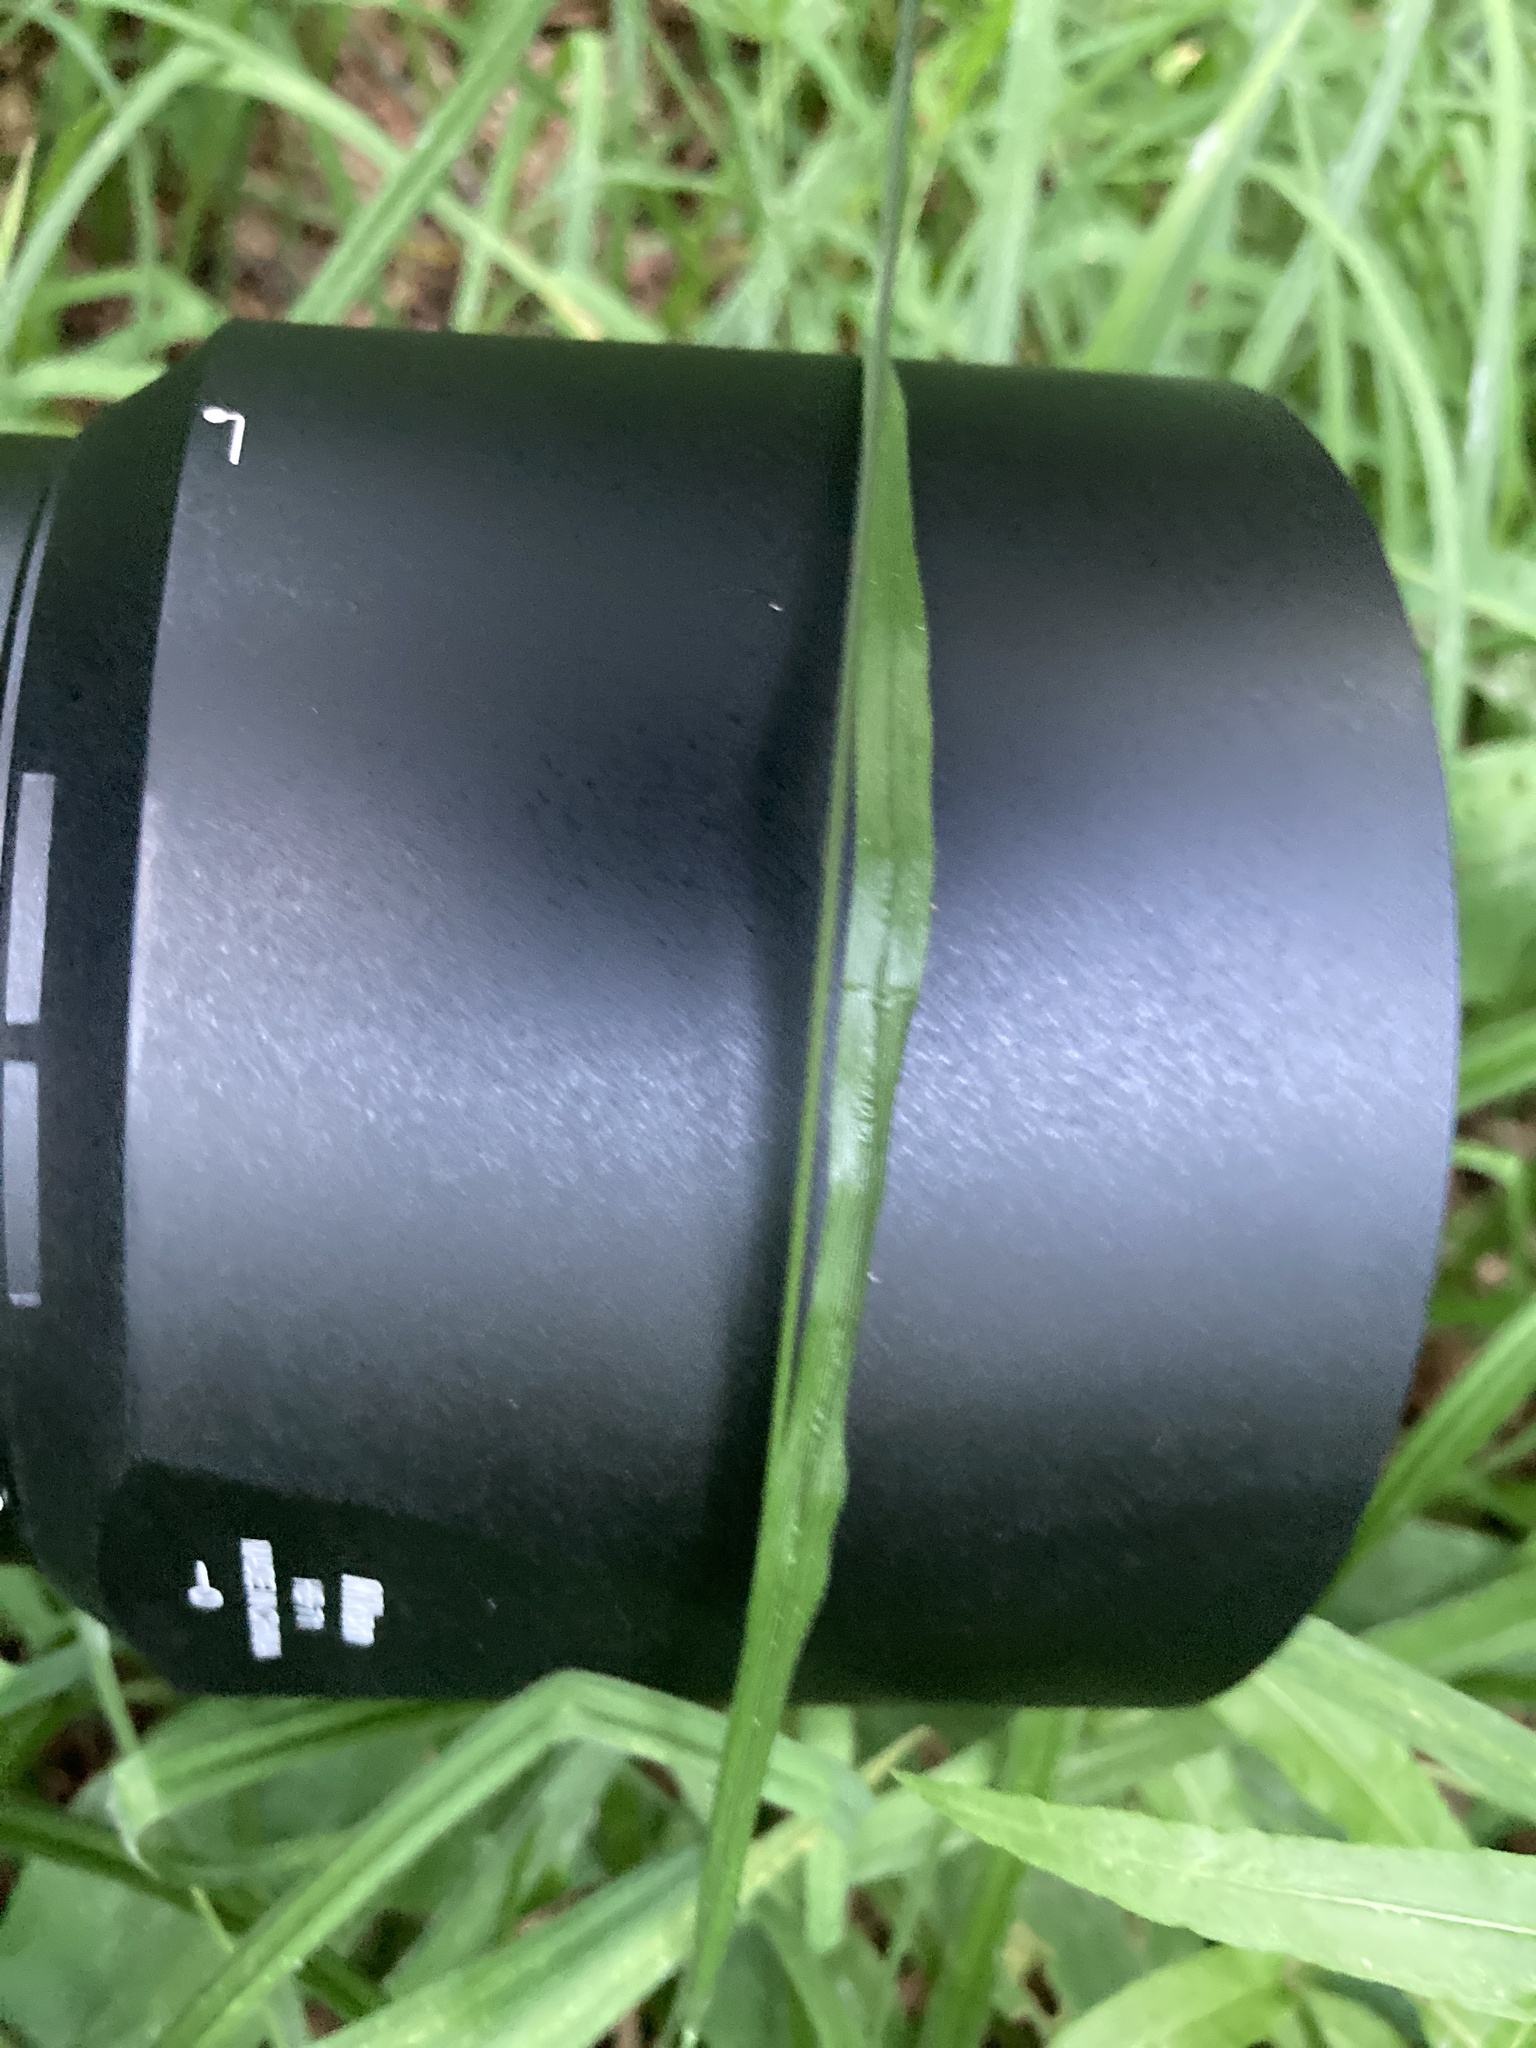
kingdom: Plantae
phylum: Tracheophyta
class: Liliopsida
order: Poales
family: Poaceae
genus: Melica
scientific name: Melica nutans
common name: Mountain melick
